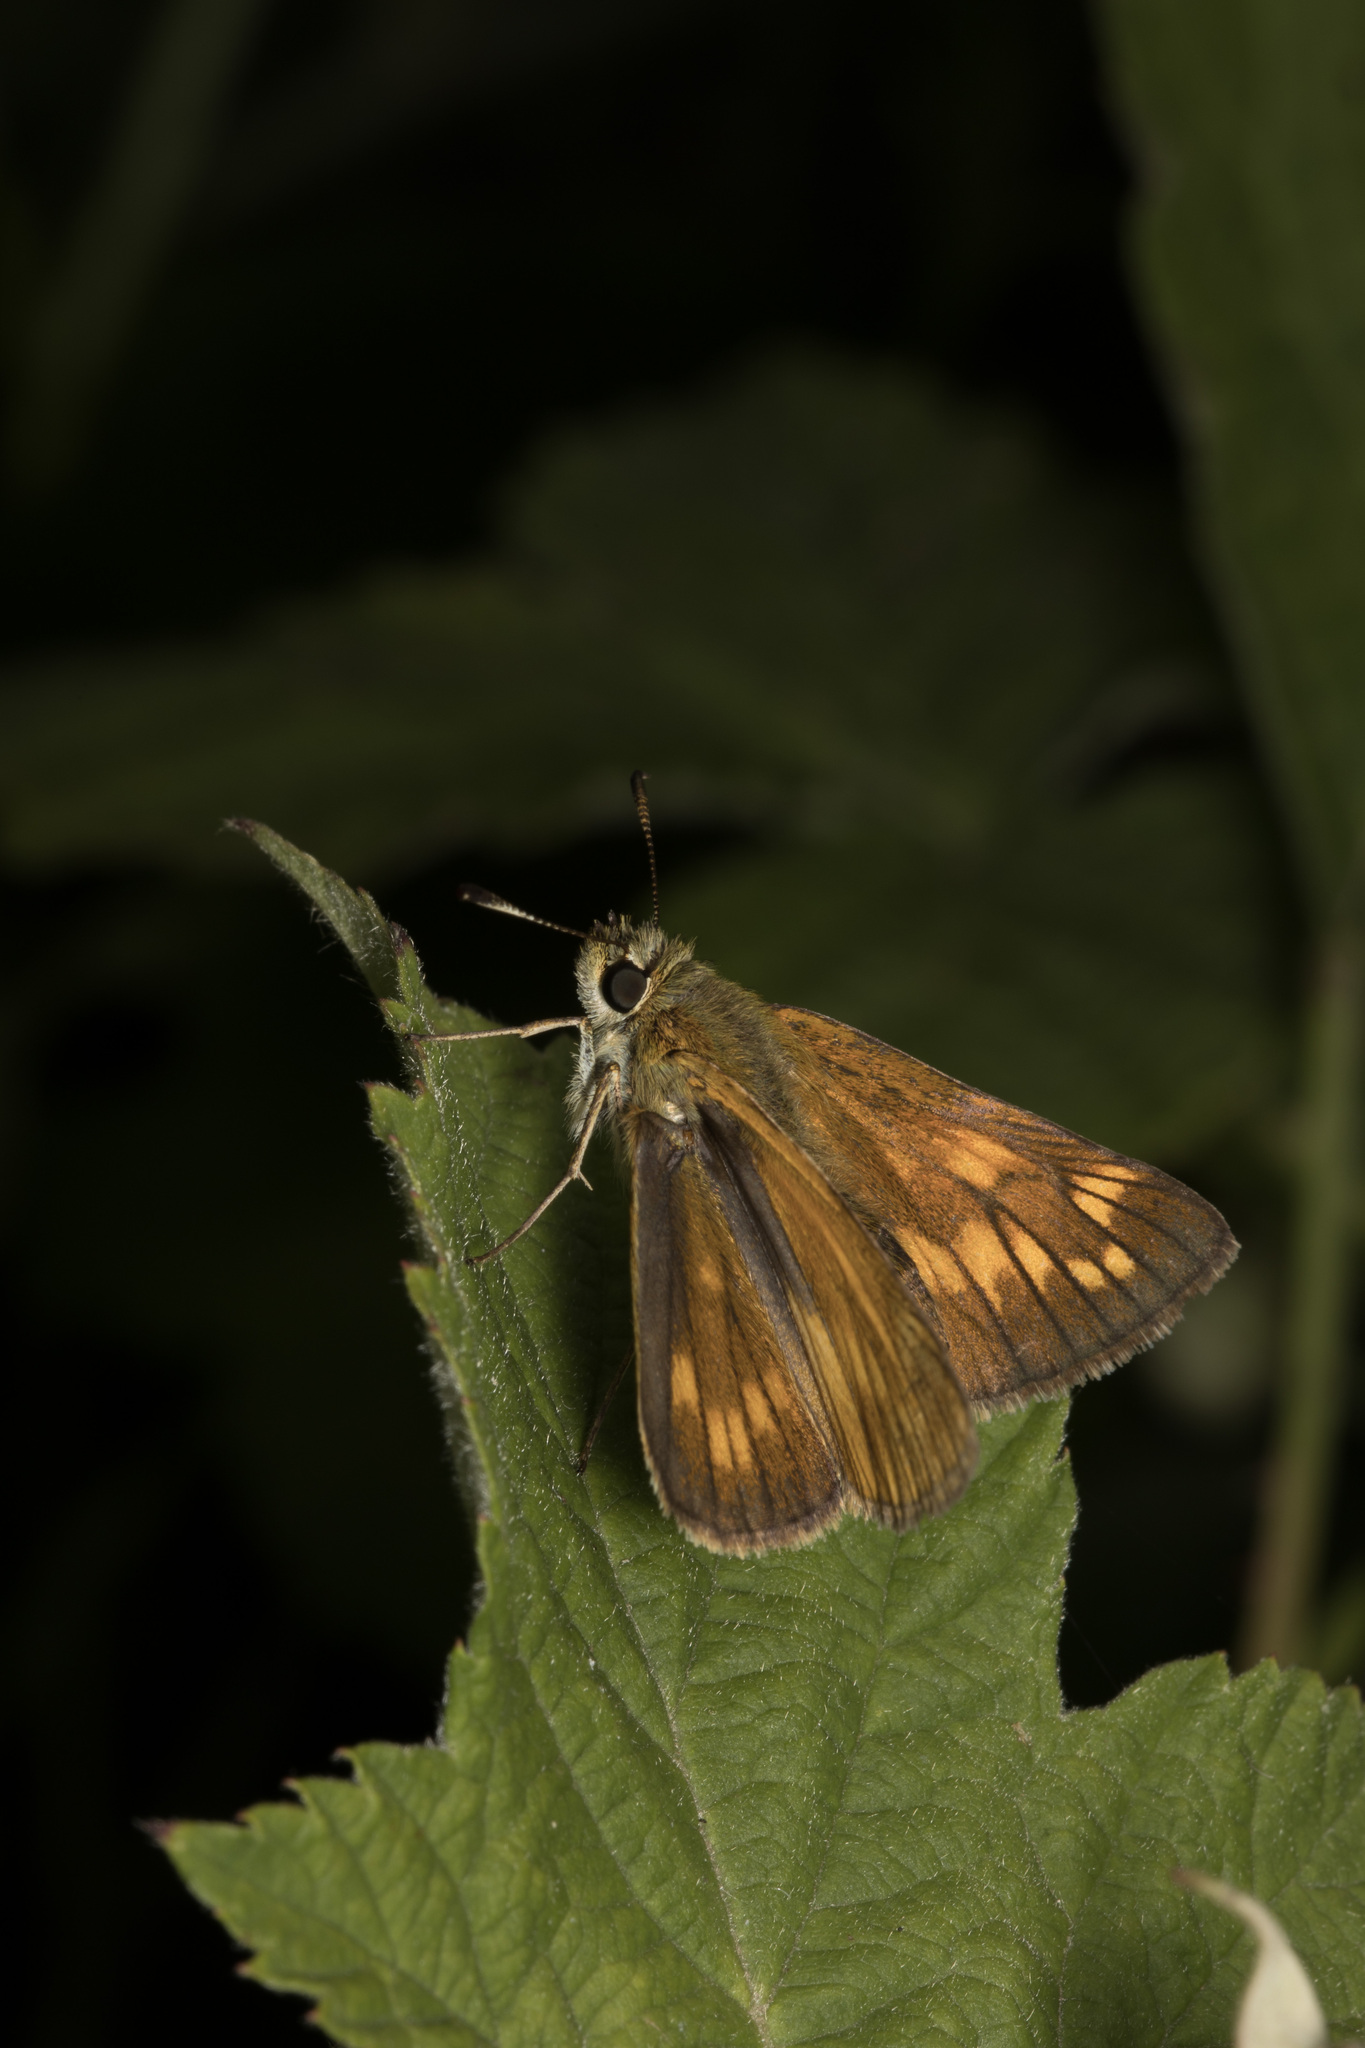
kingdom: Animalia
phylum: Arthropoda
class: Insecta
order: Lepidoptera
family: Hesperiidae
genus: Ochlodes
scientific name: Ochlodes venata
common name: Large skipper
